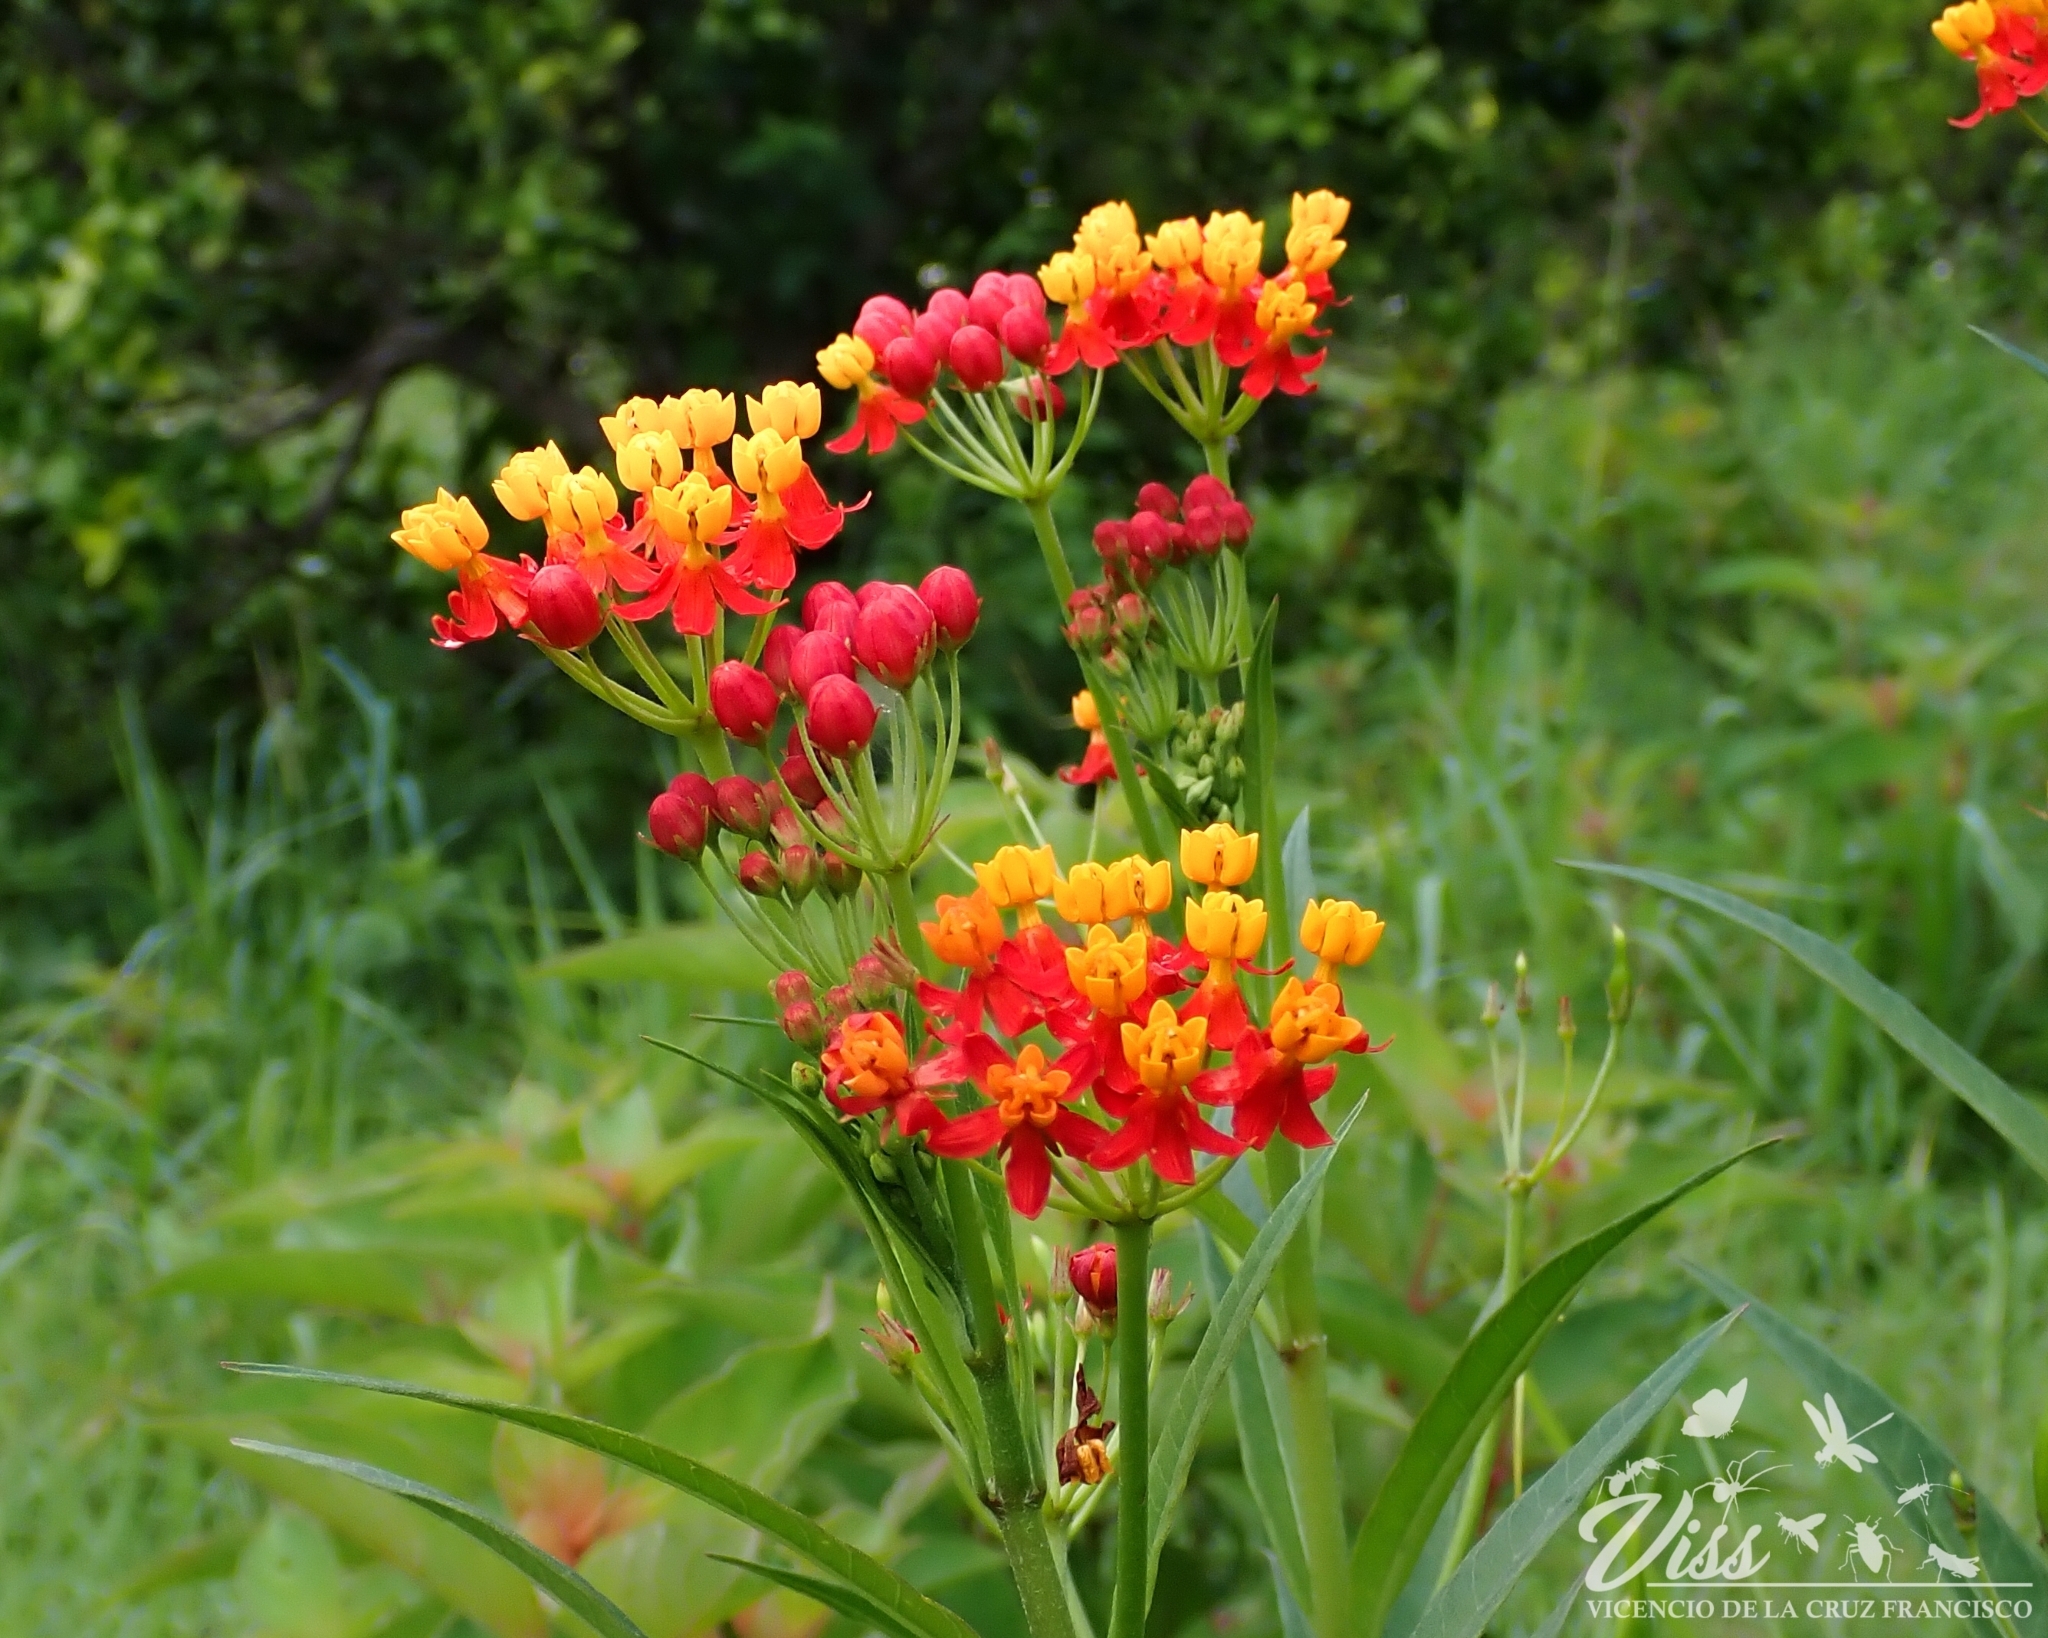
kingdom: Plantae
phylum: Tracheophyta
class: Magnoliopsida
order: Gentianales
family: Apocynaceae
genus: Asclepias
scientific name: Asclepias curassavica
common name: Bloodflower
